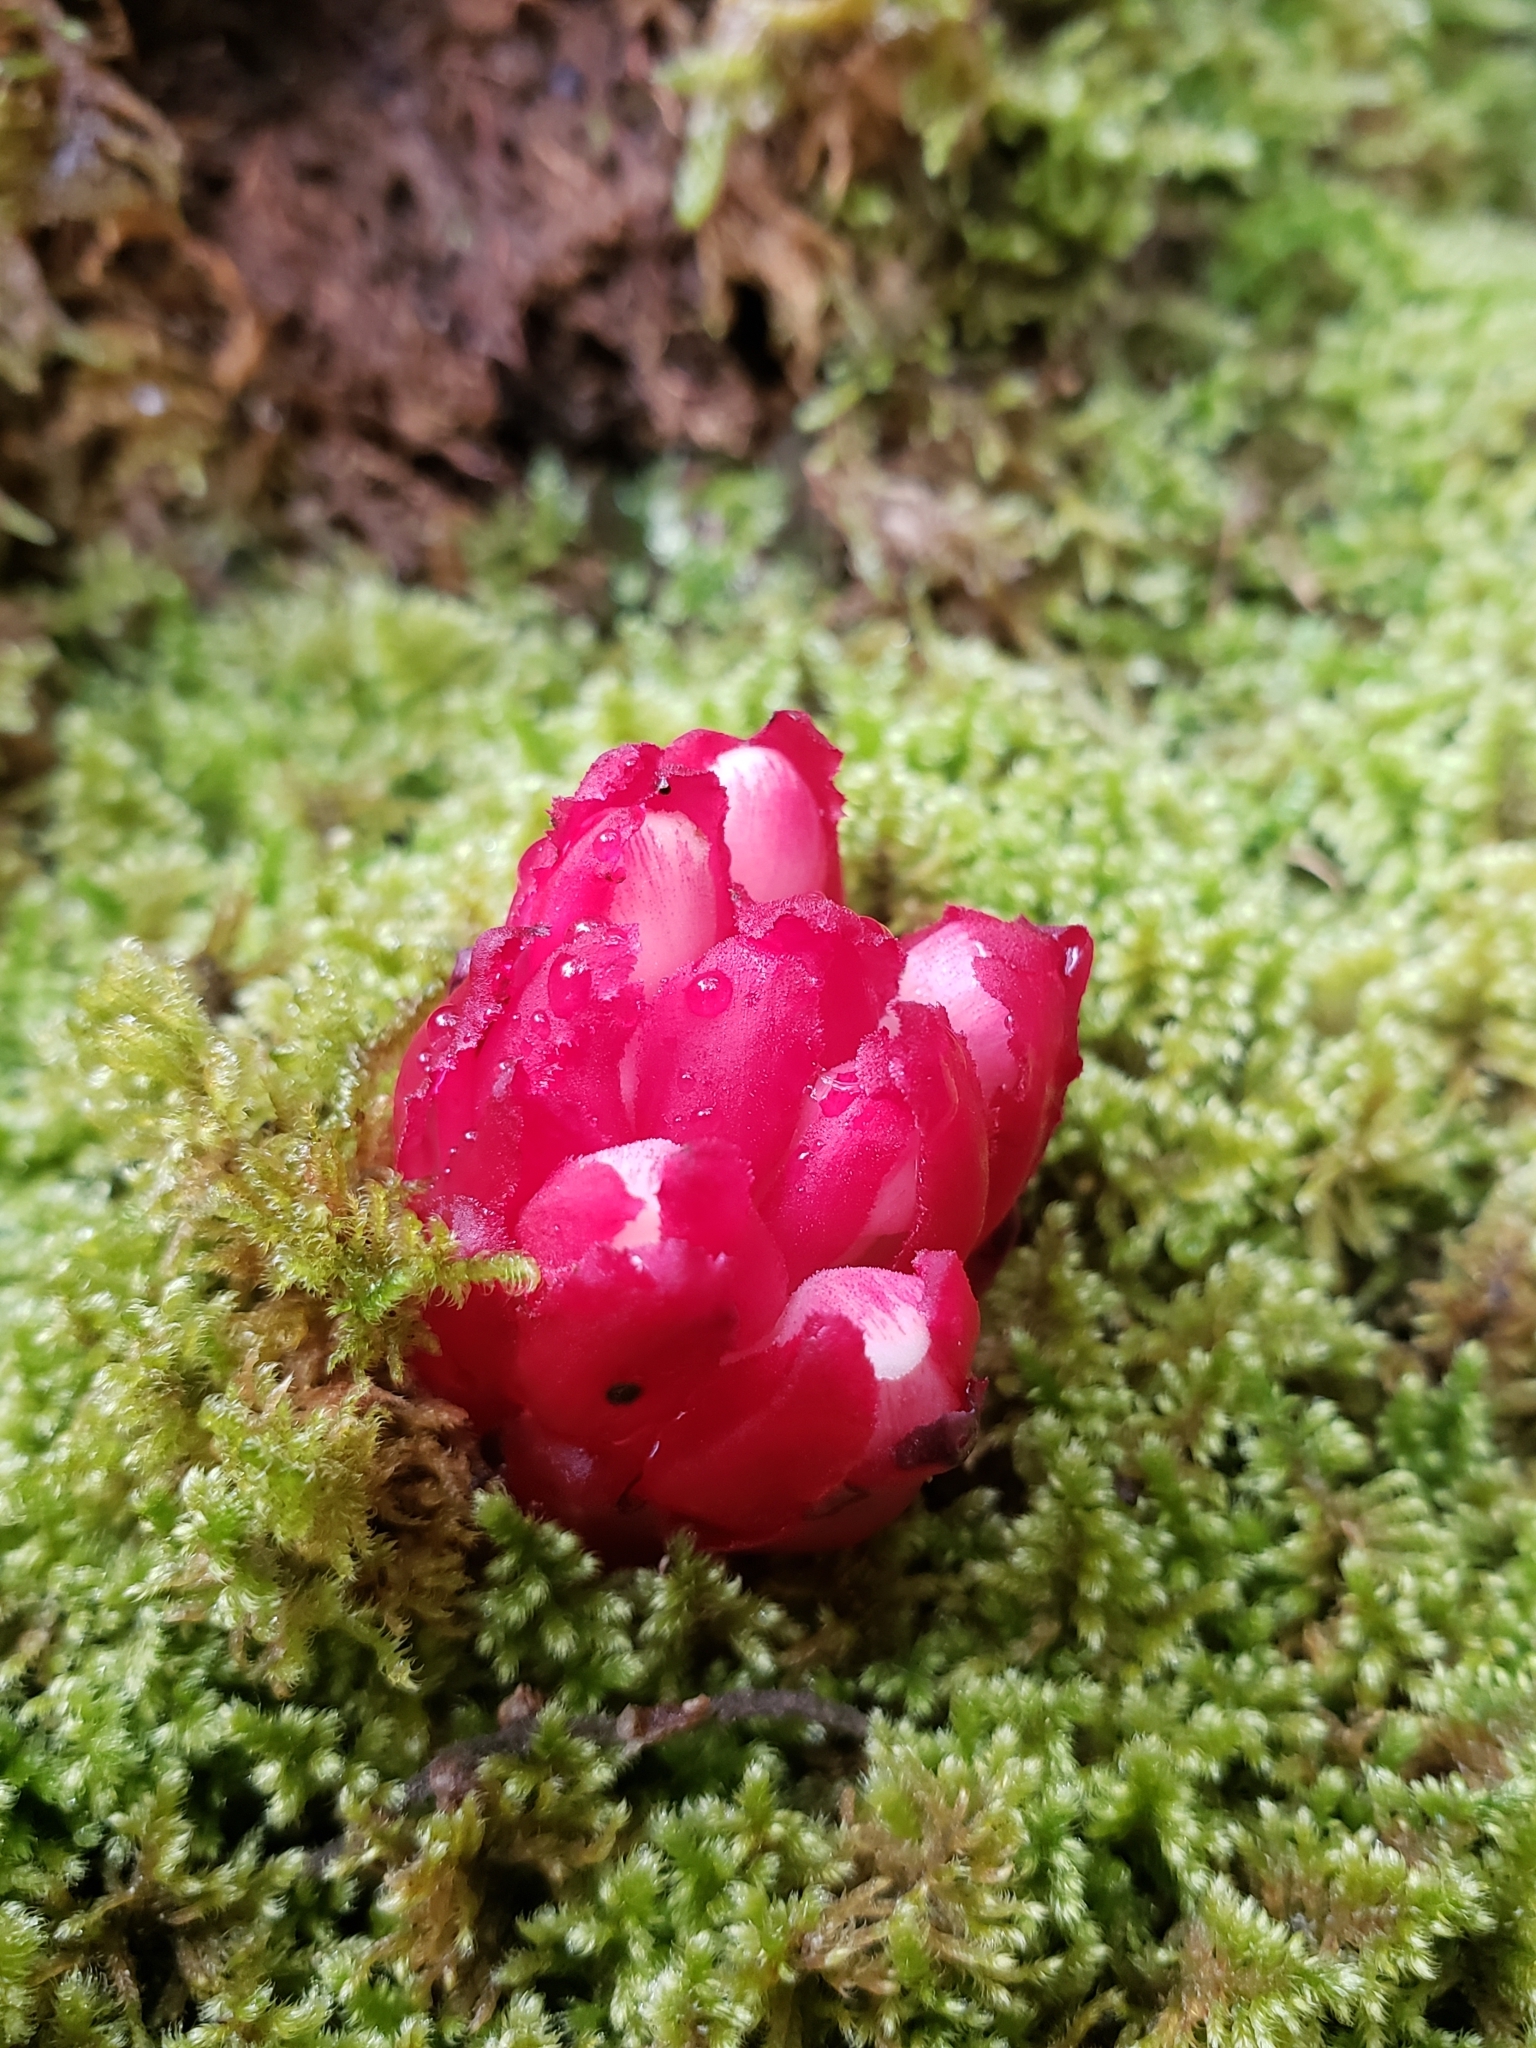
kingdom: Plantae
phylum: Tracheophyta
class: Magnoliopsida
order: Malvales
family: Cytinaceae
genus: Cytinus
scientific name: Cytinus ruber
